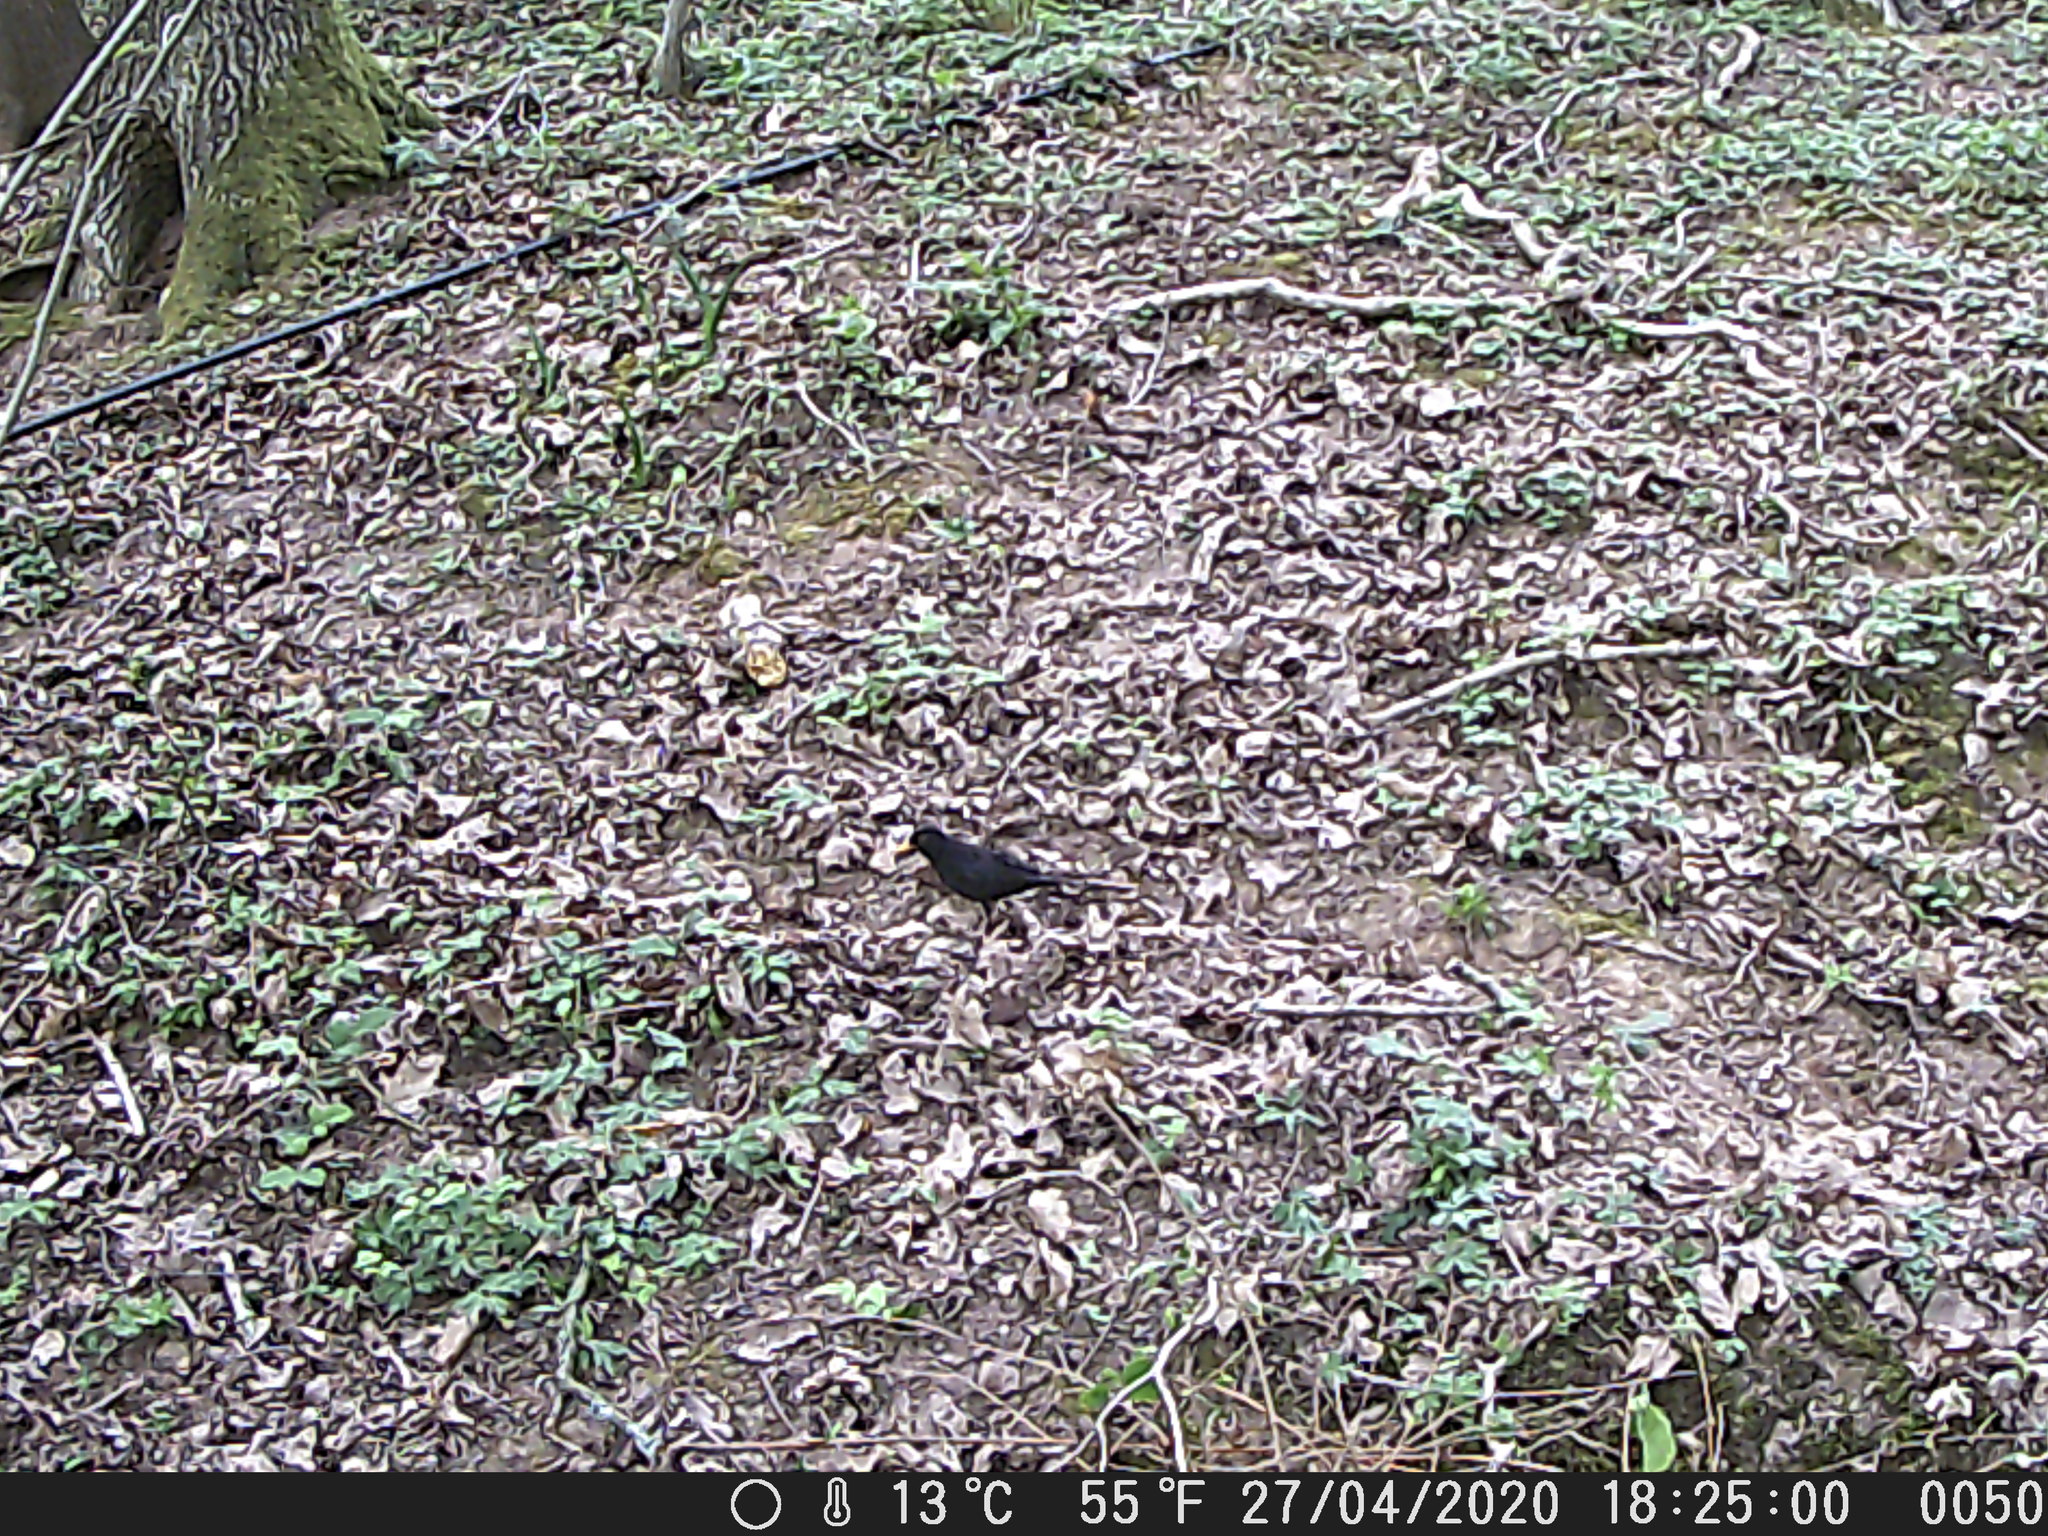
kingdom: Animalia
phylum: Chordata
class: Aves
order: Passeriformes
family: Turdidae
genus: Turdus
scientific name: Turdus merula
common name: Common blackbird
